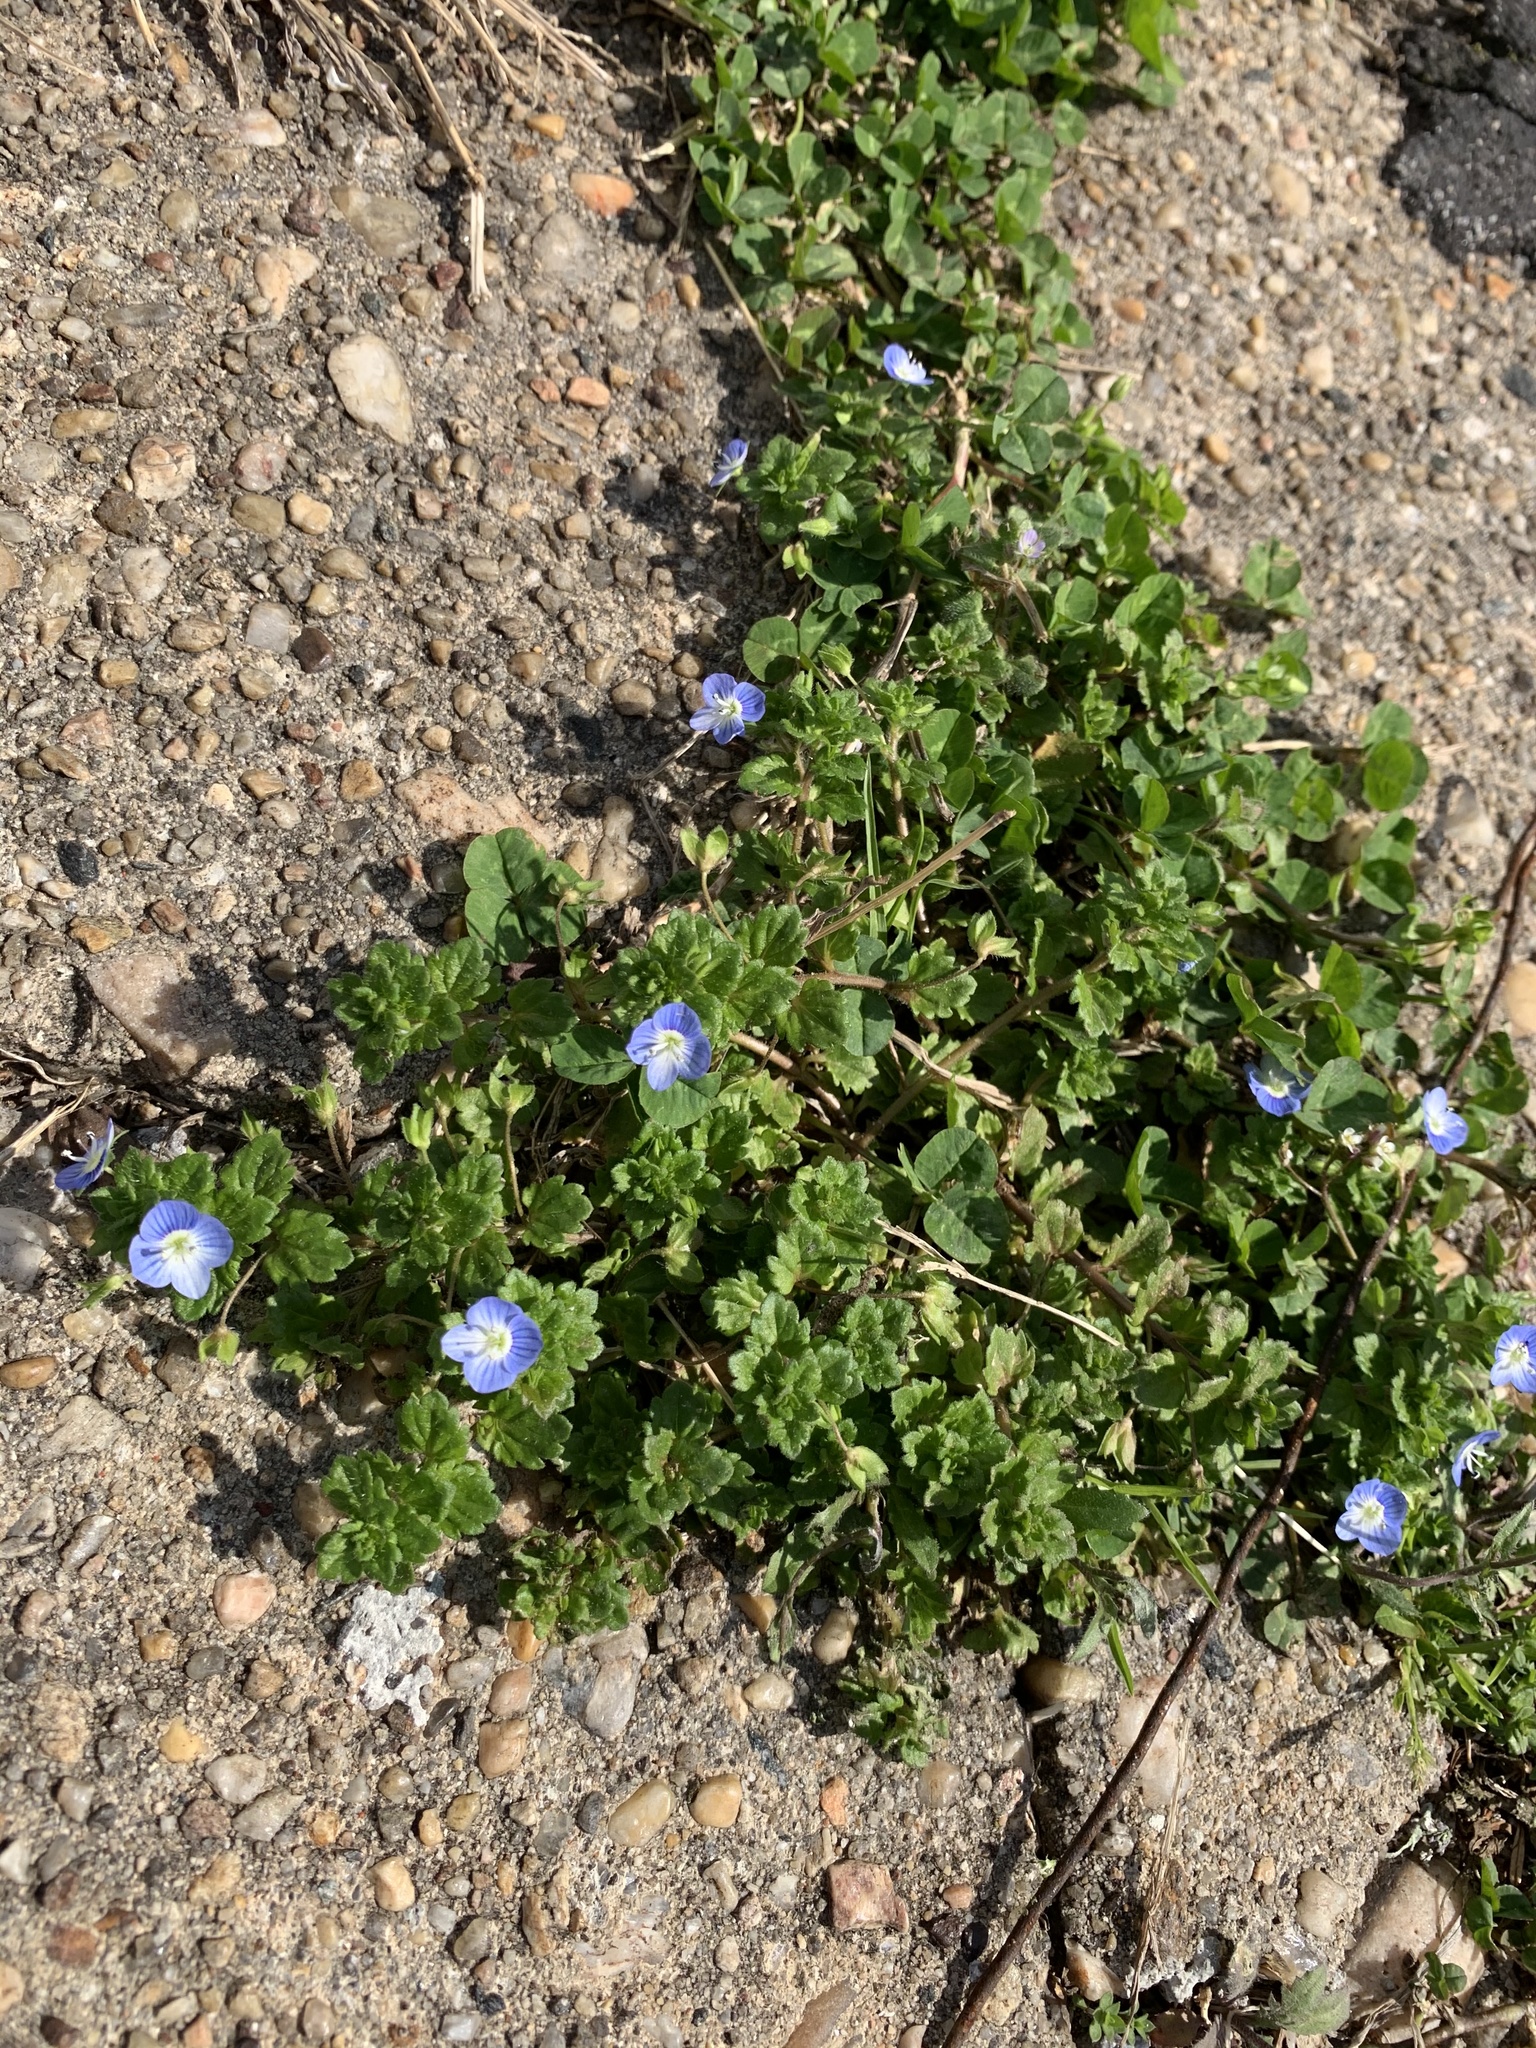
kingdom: Plantae
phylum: Tracheophyta
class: Magnoliopsida
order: Lamiales
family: Plantaginaceae
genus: Veronica
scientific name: Veronica persica
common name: Common field-speedwell
